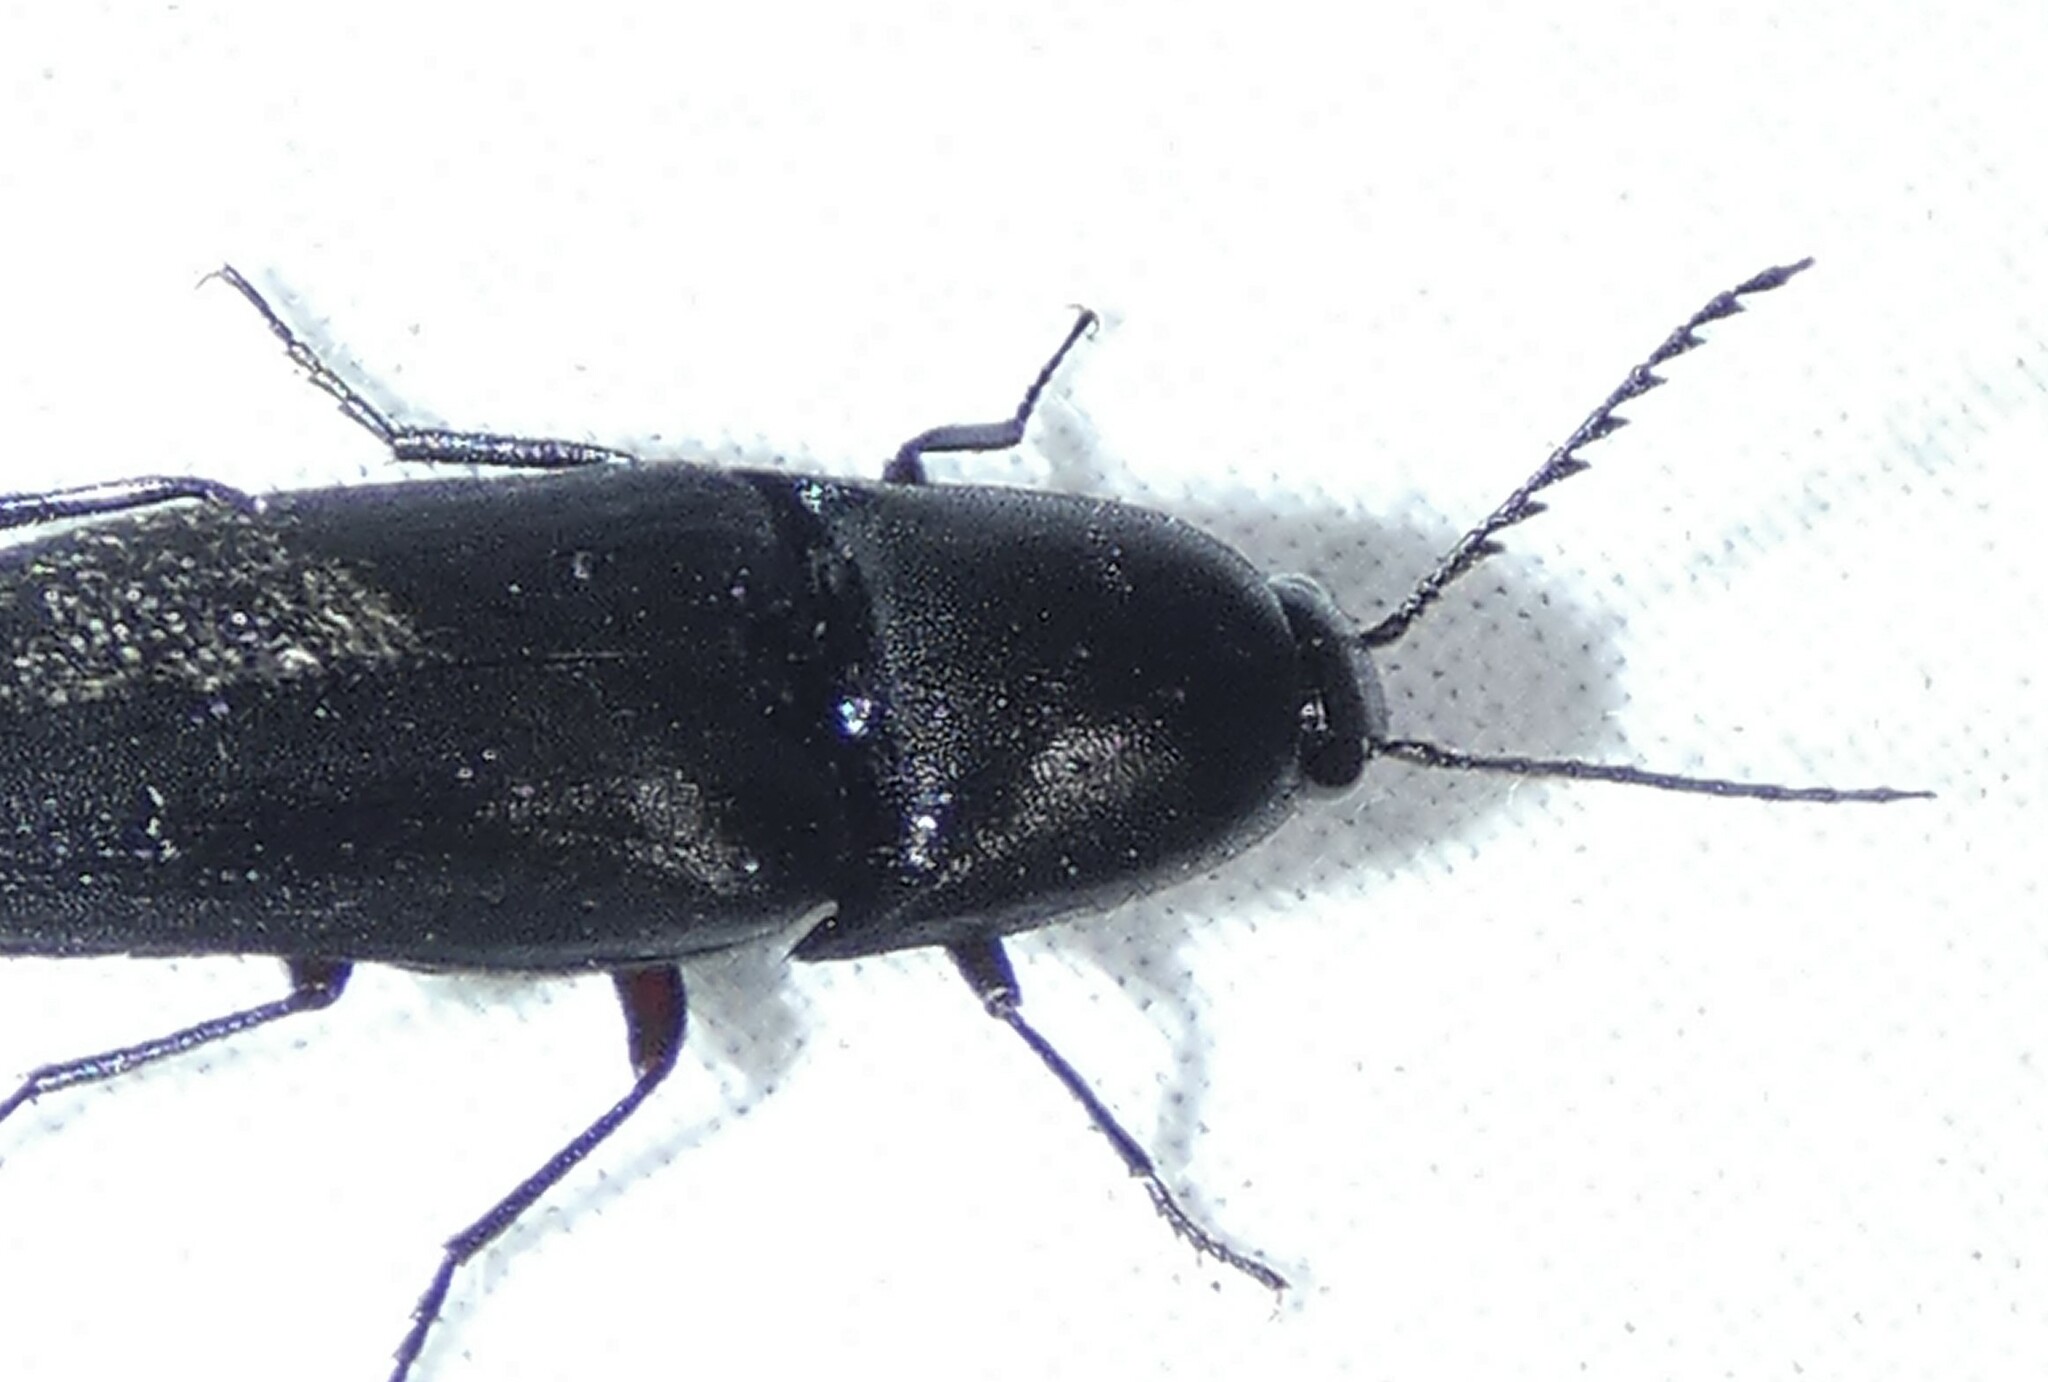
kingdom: Animalia
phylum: Arthropoda
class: Insecta
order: Coleoptera
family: Elateridae
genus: Parallelostethus
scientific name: Parallelostethus attenuatus
